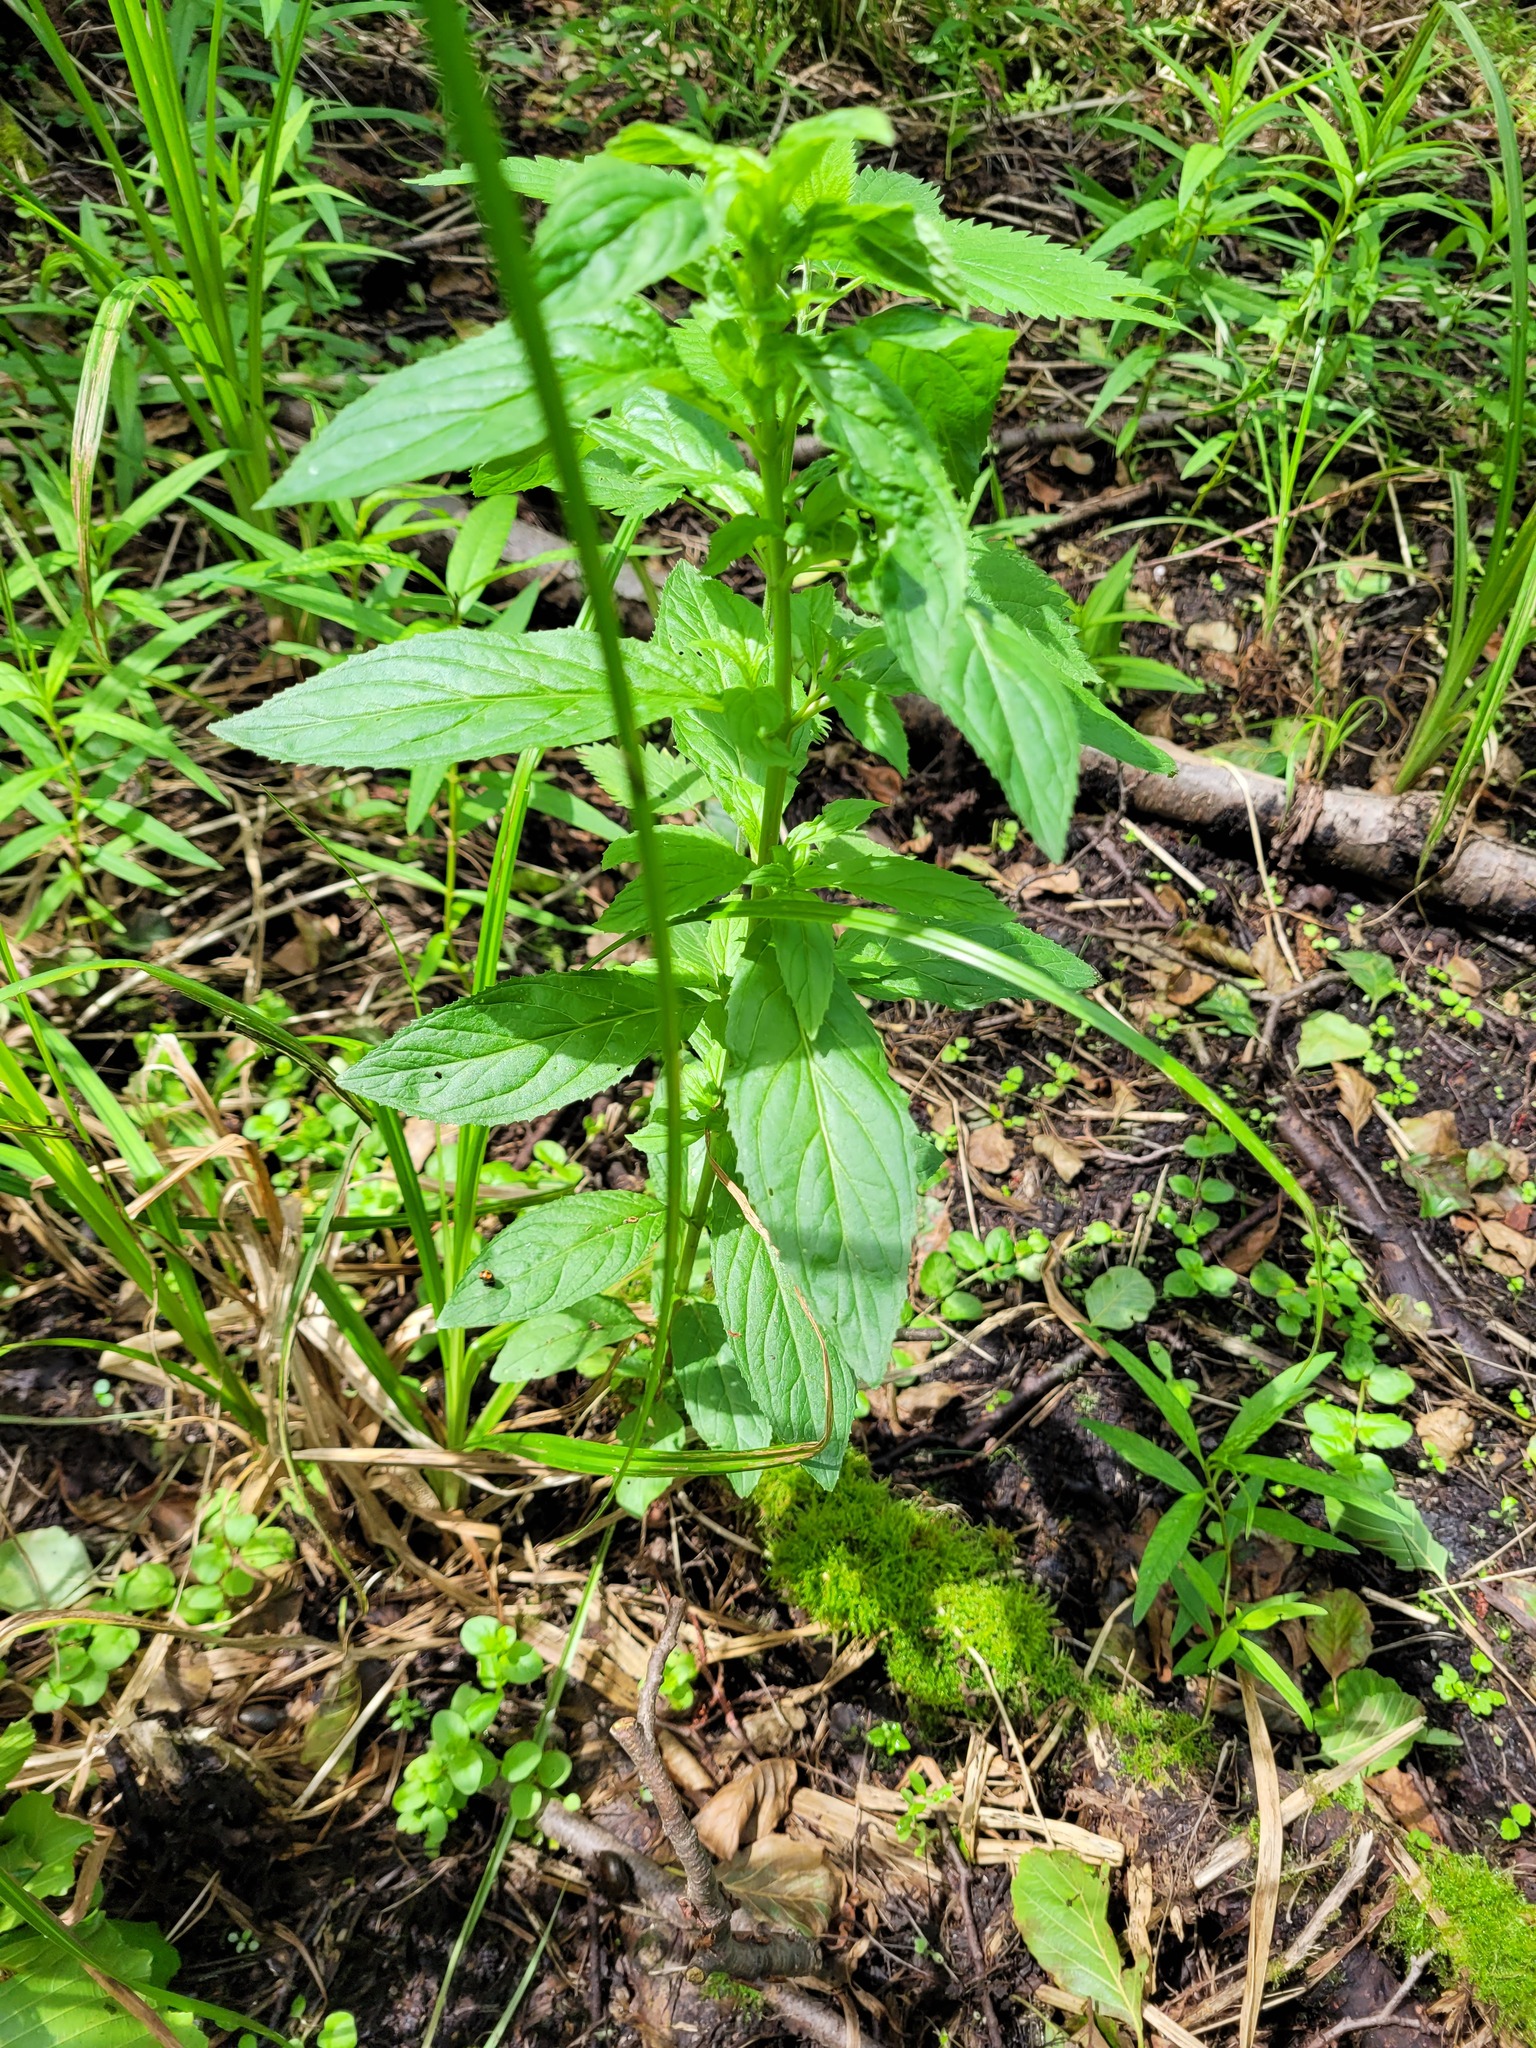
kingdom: Plantae
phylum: Tracheophyta
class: Magnoliopsida
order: Myrtales
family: Onagraceae
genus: Epilobium
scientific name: Epilobium roseum
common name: Pale willowherb
